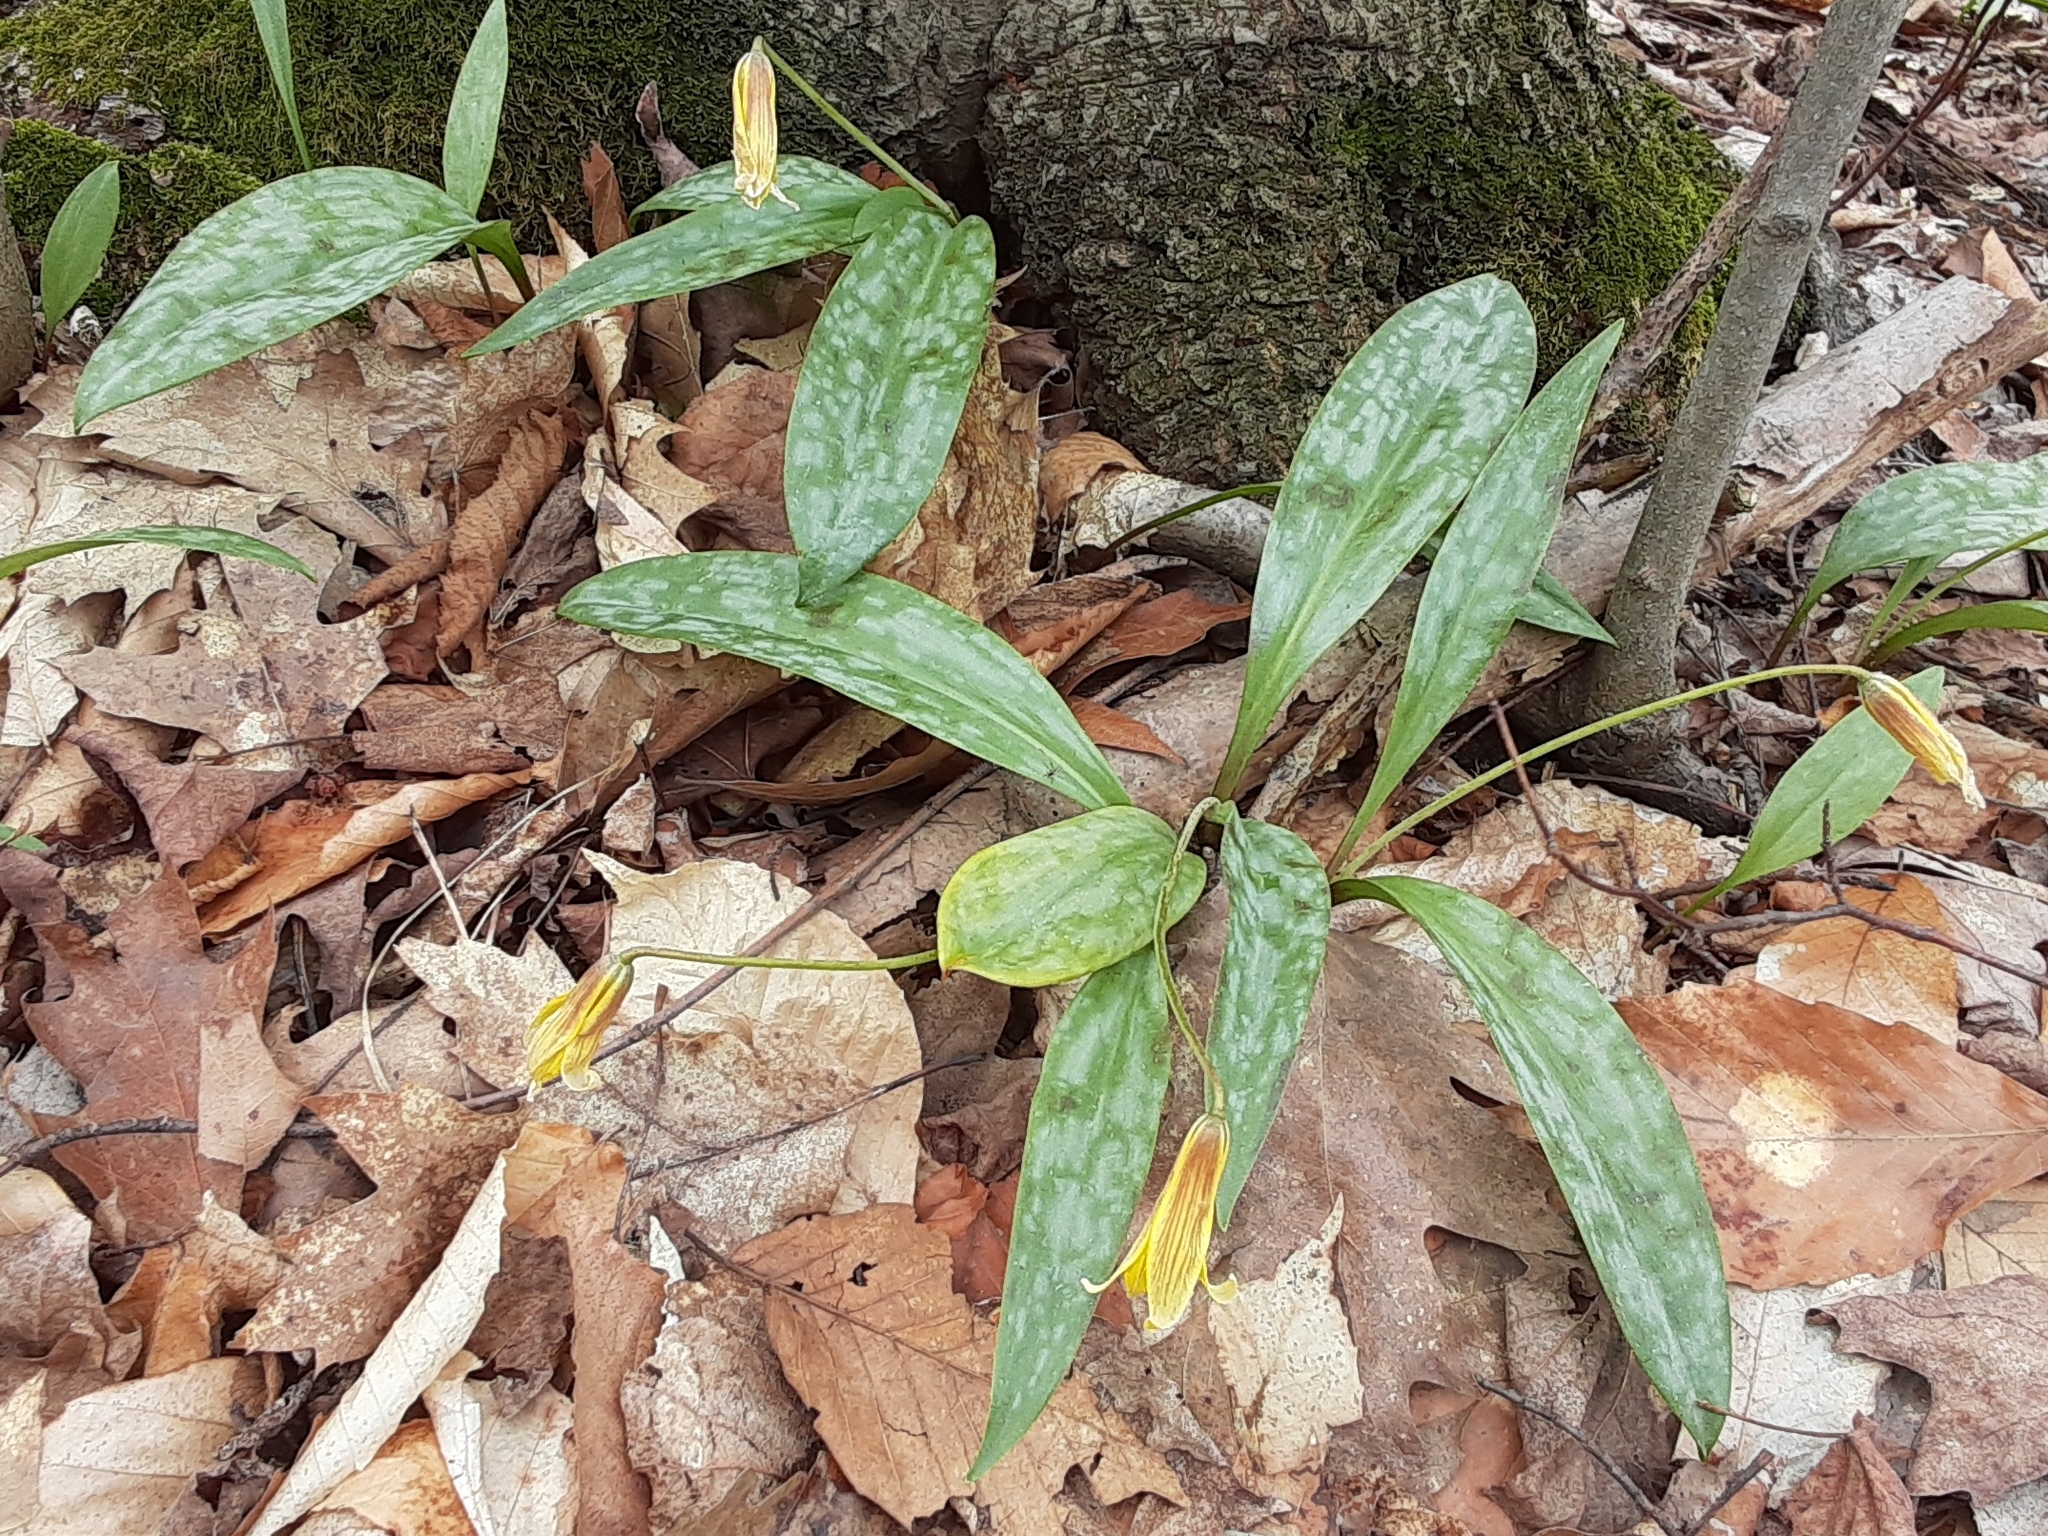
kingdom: Plantae
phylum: Tracheophyta
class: Liliopsida
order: Liliales
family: Liliaceae
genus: Erythronium
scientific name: Erythronium americanum
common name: Yellow adder's-tongue
